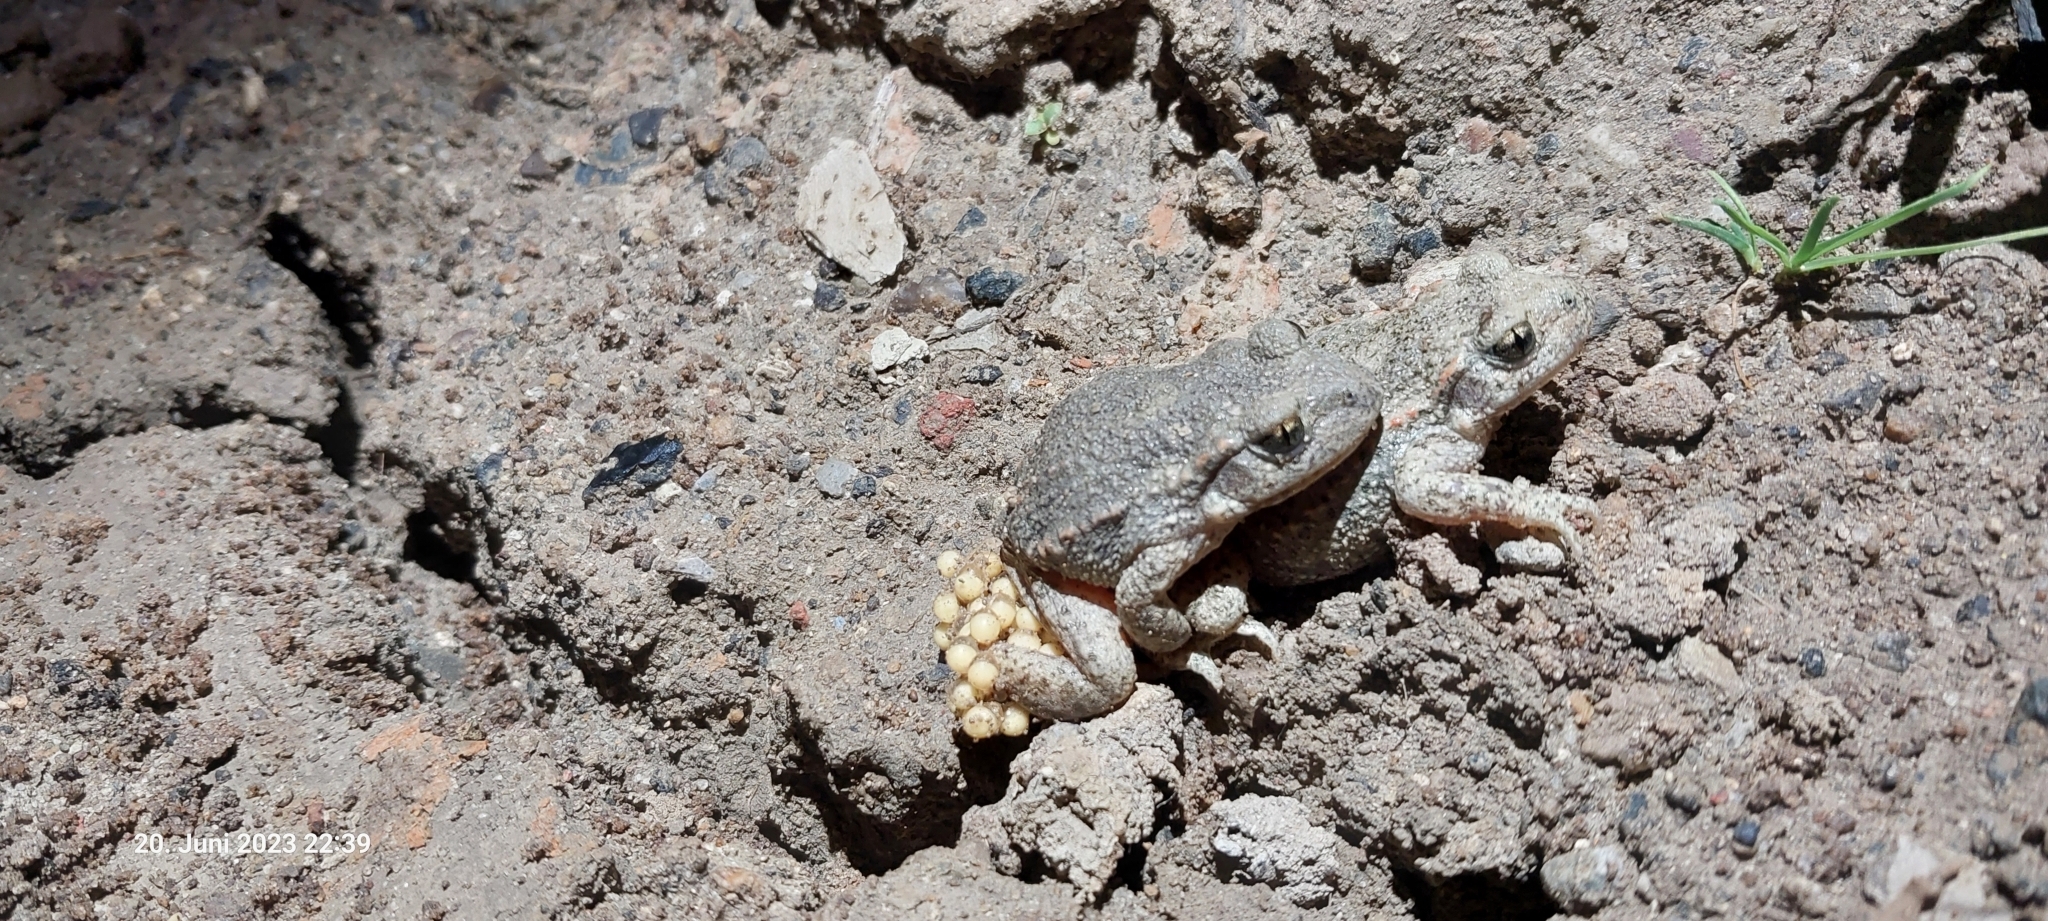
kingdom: Animalia
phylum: Chordata
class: Amphibia
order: Anura
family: Alytidae
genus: Alytes
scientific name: Alytes obstetricans
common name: Midwife toad
